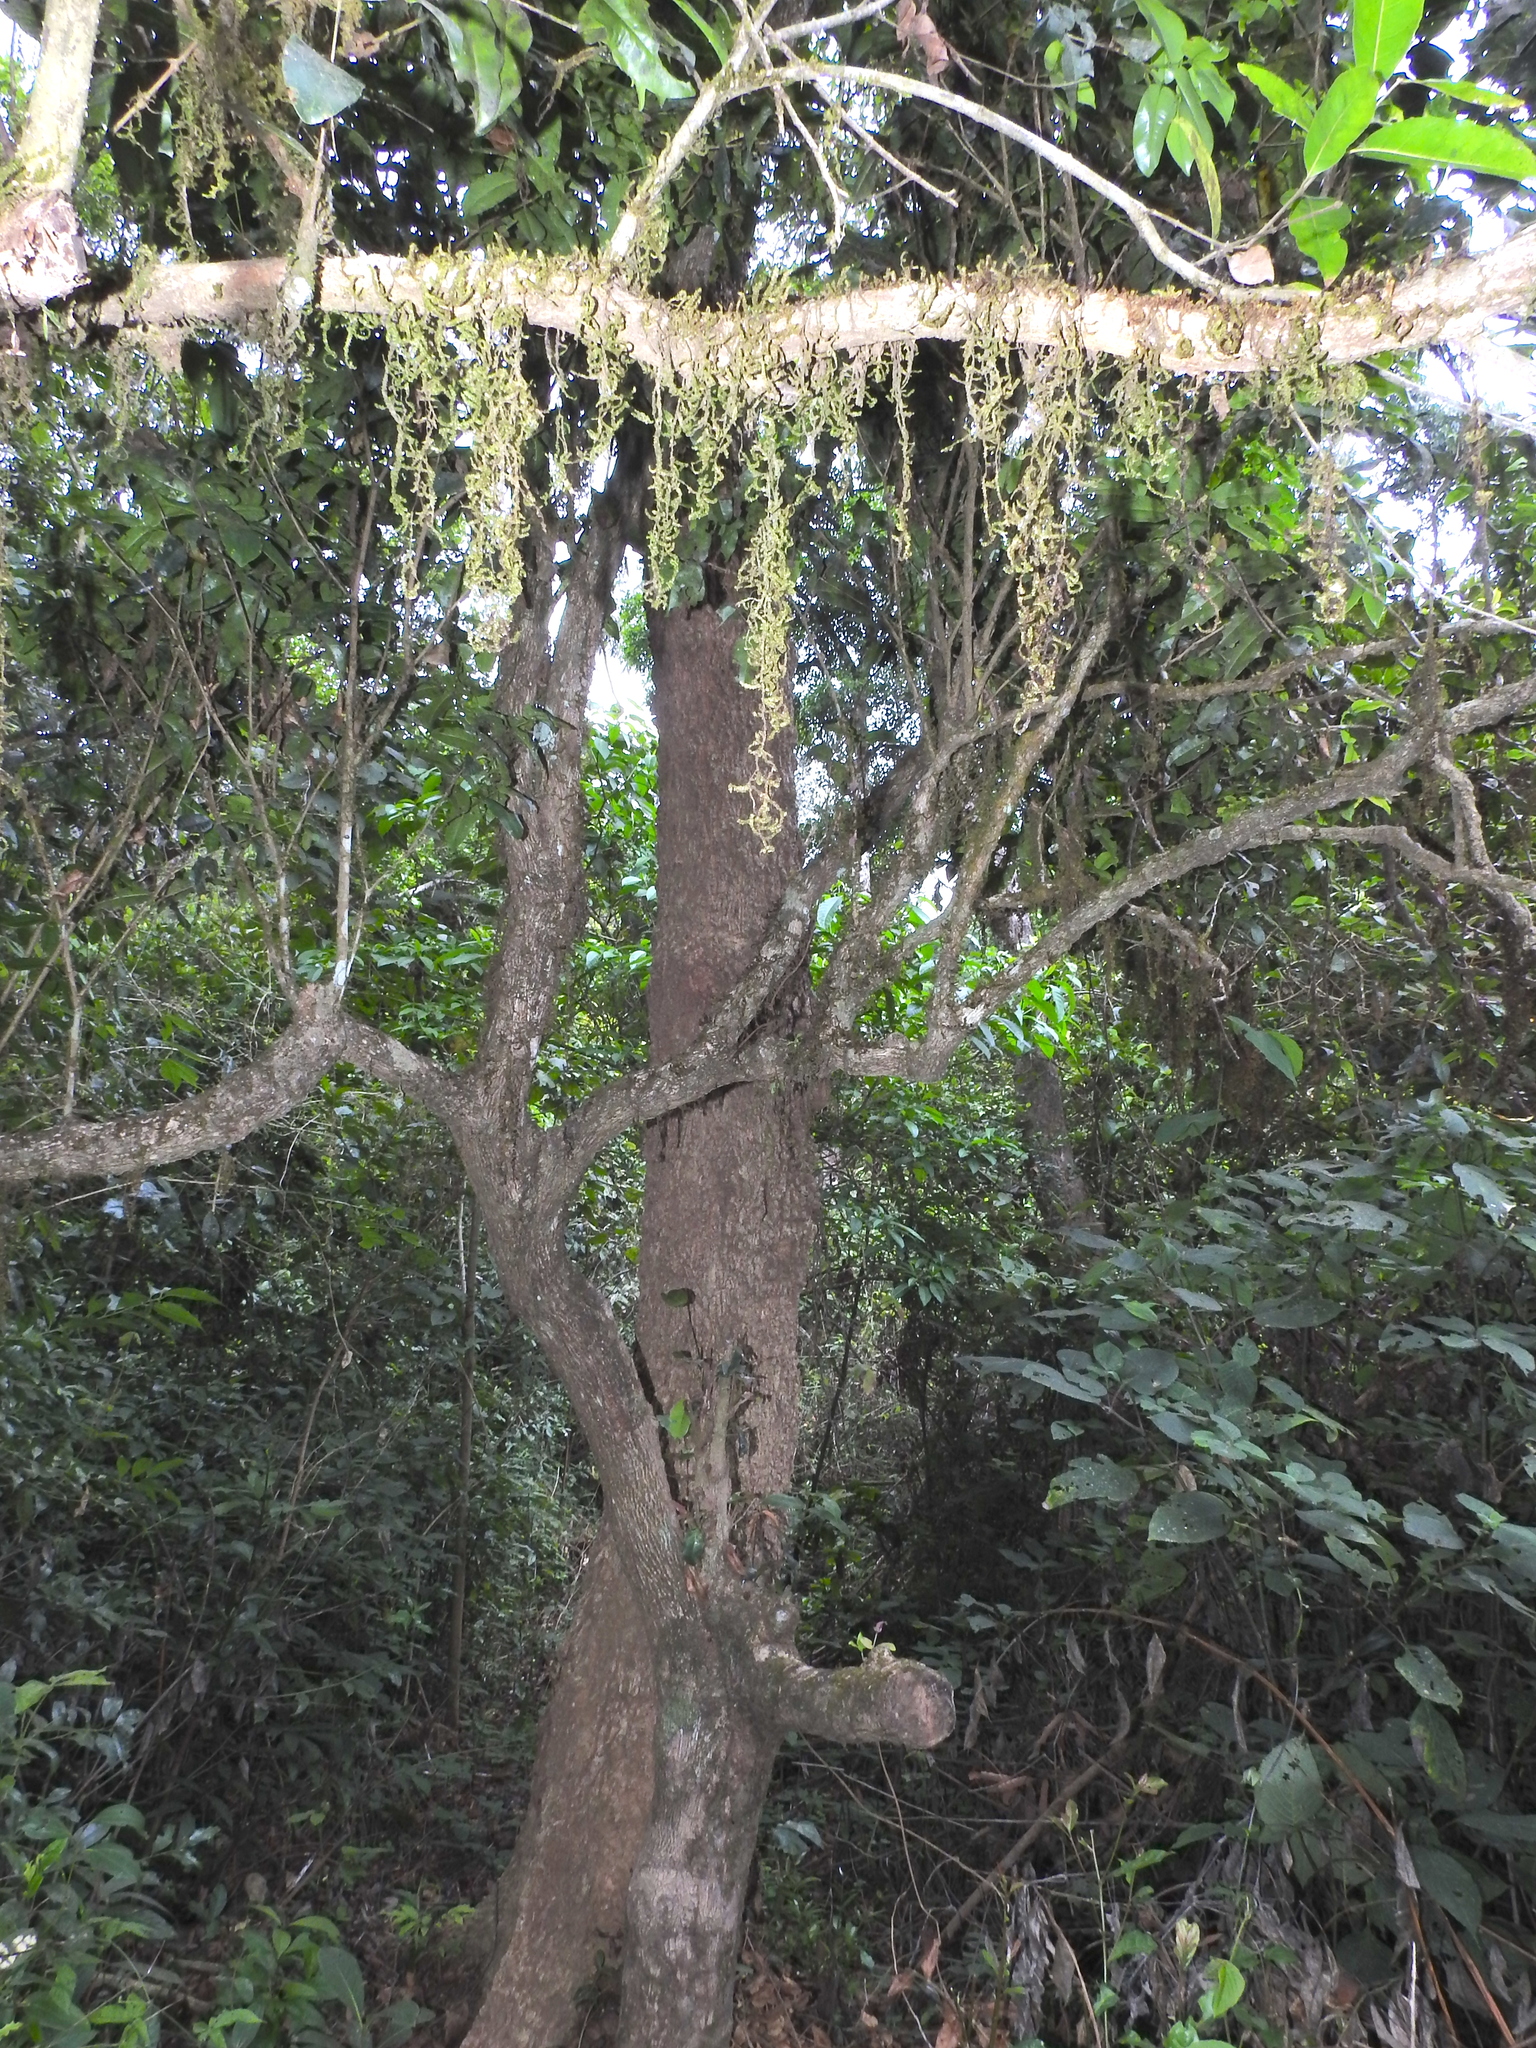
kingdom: Plantae
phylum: Tracheophyta
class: Magnoliopsida
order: Myrtales
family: Melastomataceae
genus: Memecylon
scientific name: Memecylon sessile
